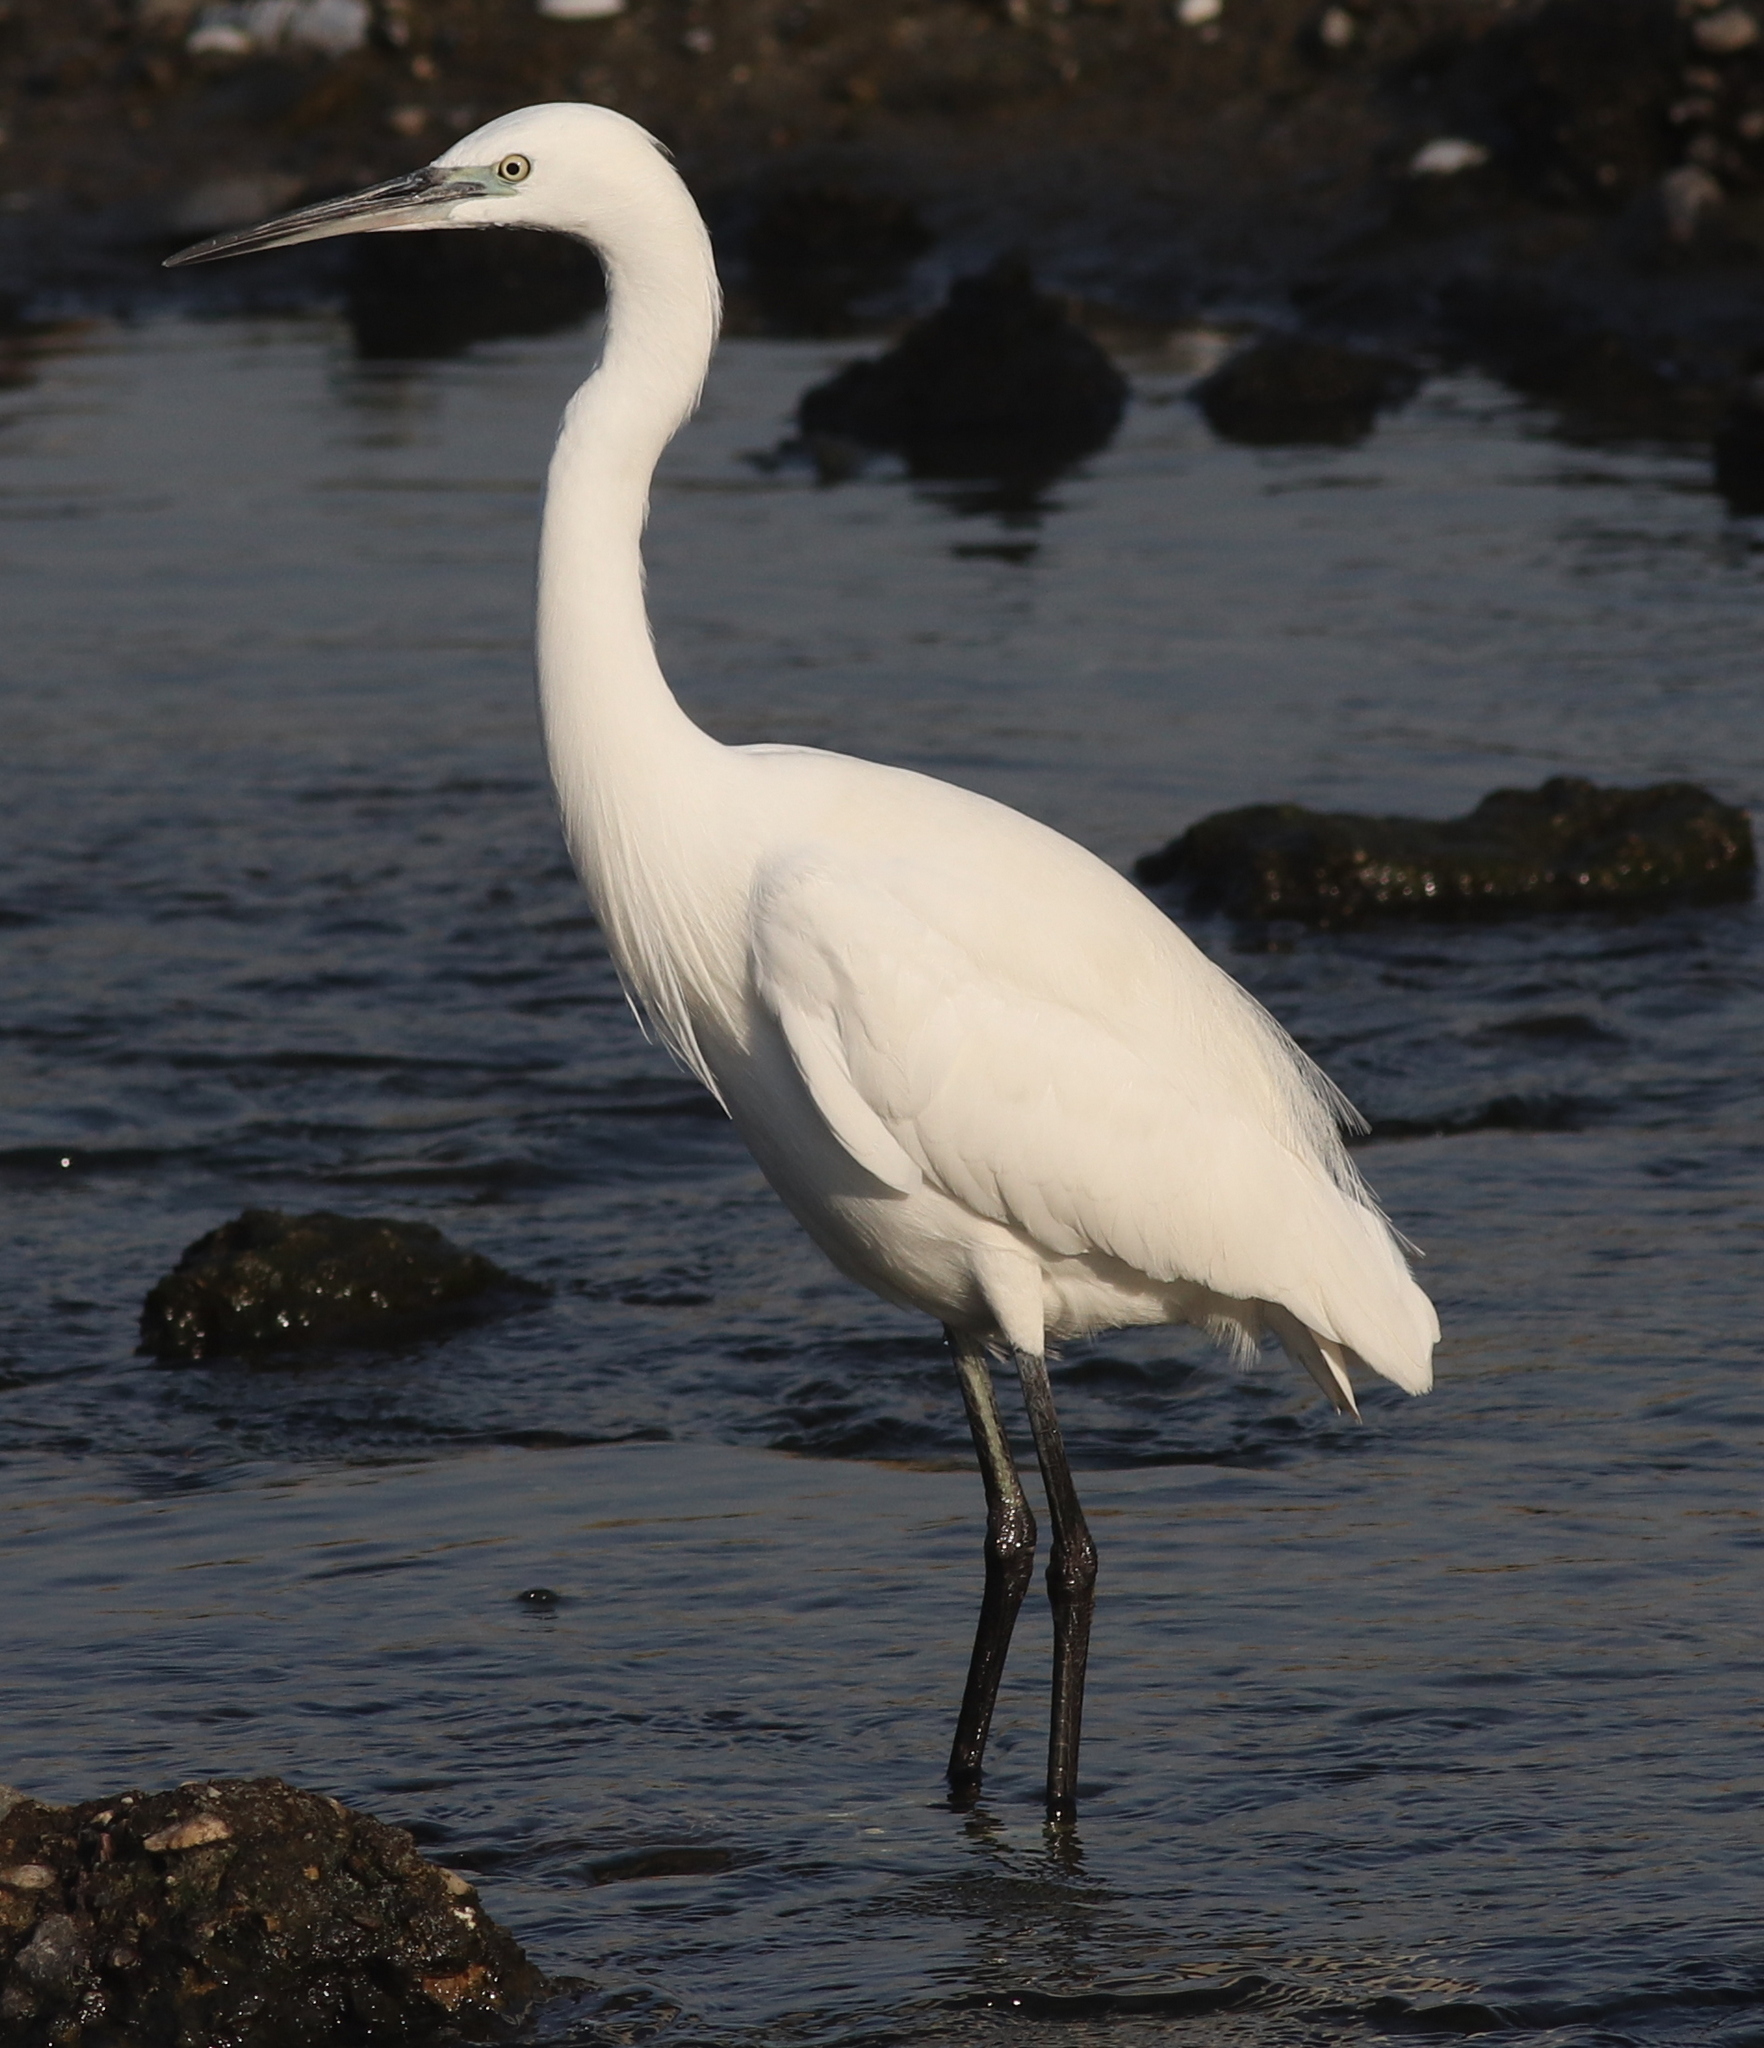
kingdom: Animalia
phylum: Chordata
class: Aves
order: Pelecaniformes
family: Ardeidae
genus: Egretta
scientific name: Egretta garzetta
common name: Little egret
